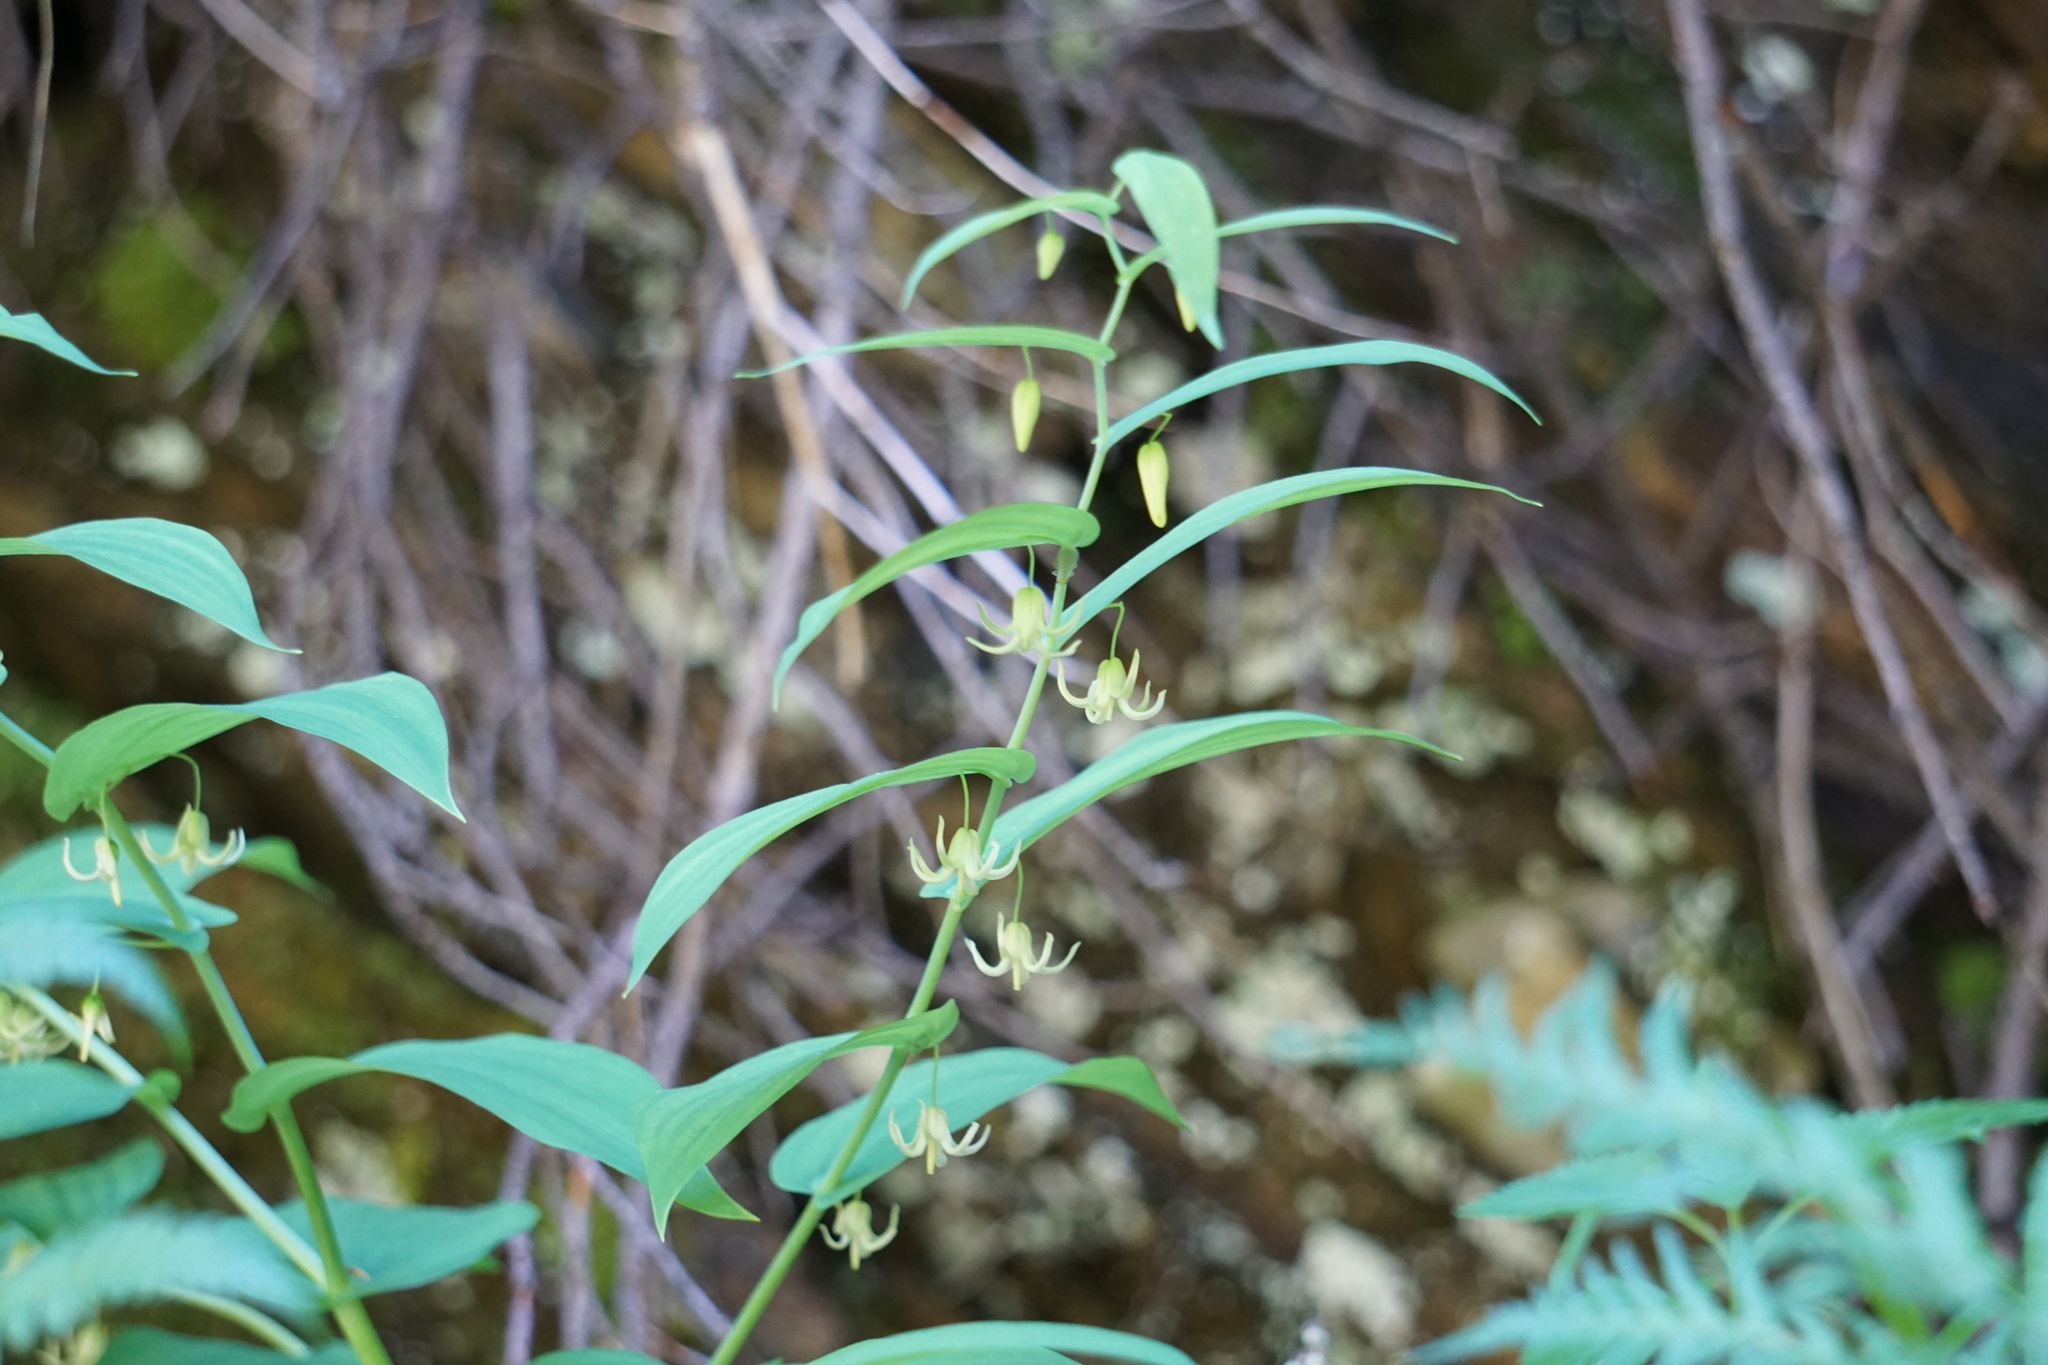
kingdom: Plantae
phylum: Tracheophyta
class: Liliopsida
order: Liliales
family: Liliaceae
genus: Streptopus
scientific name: Streptopus amplexifolius
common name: Clasp twisted stalk
